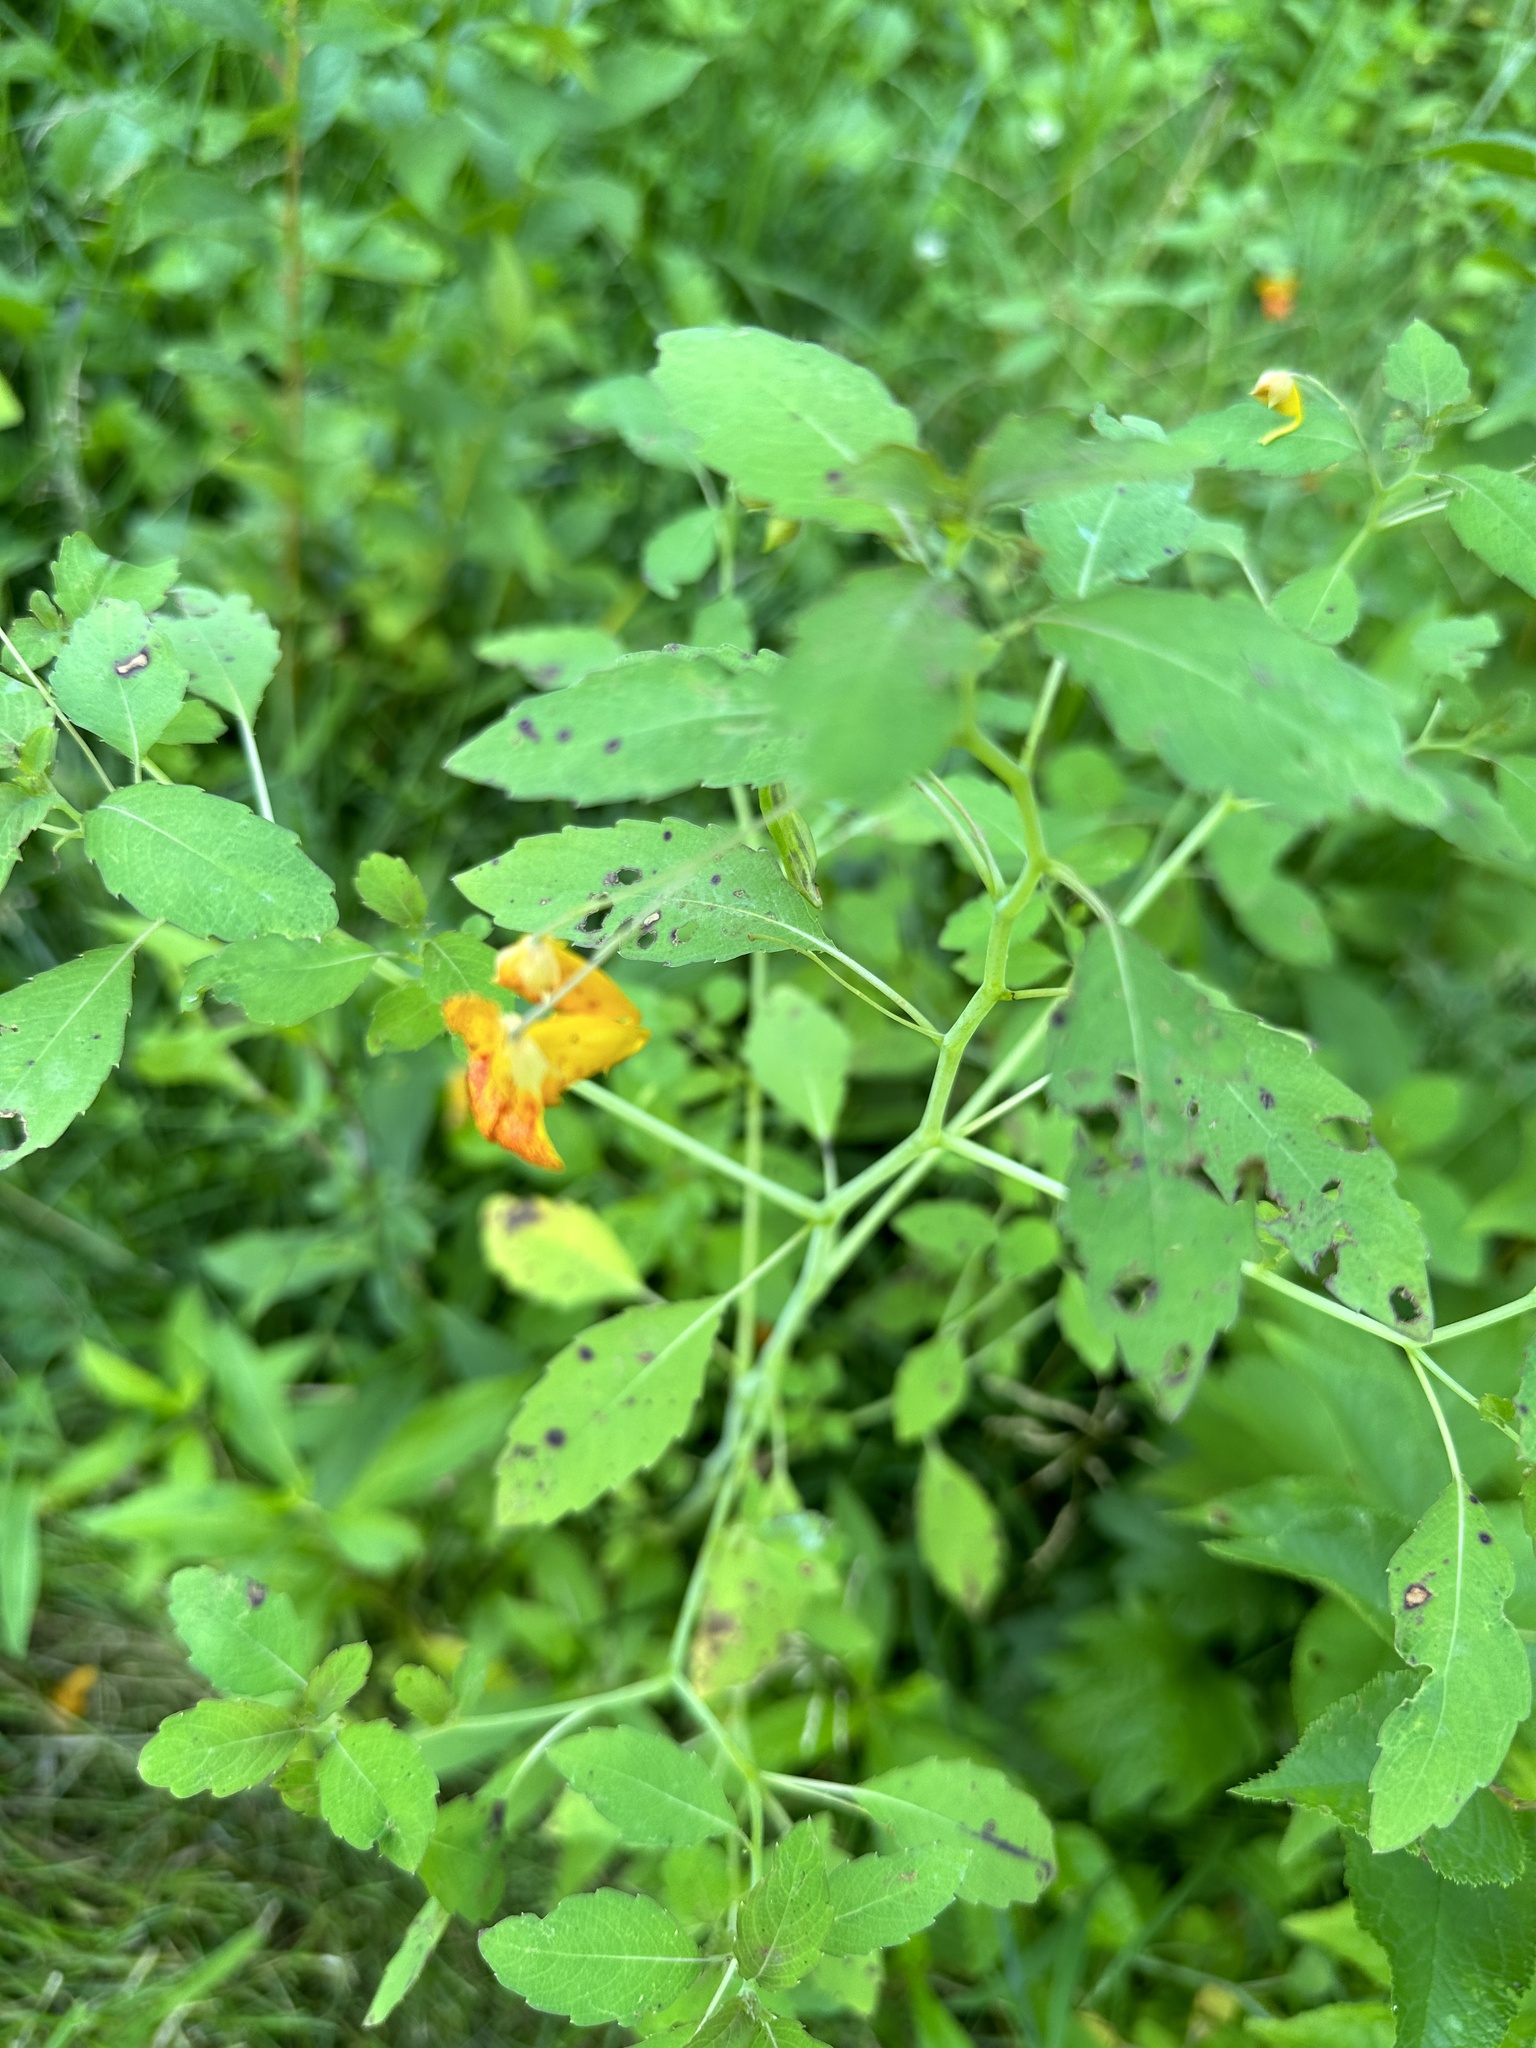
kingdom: Plantae
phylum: Tracheophyta
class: Magnoliopsida
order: Ericales
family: Balsaminaceae
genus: Impatiens
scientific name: Impatiens capensis
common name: Orange balsam
